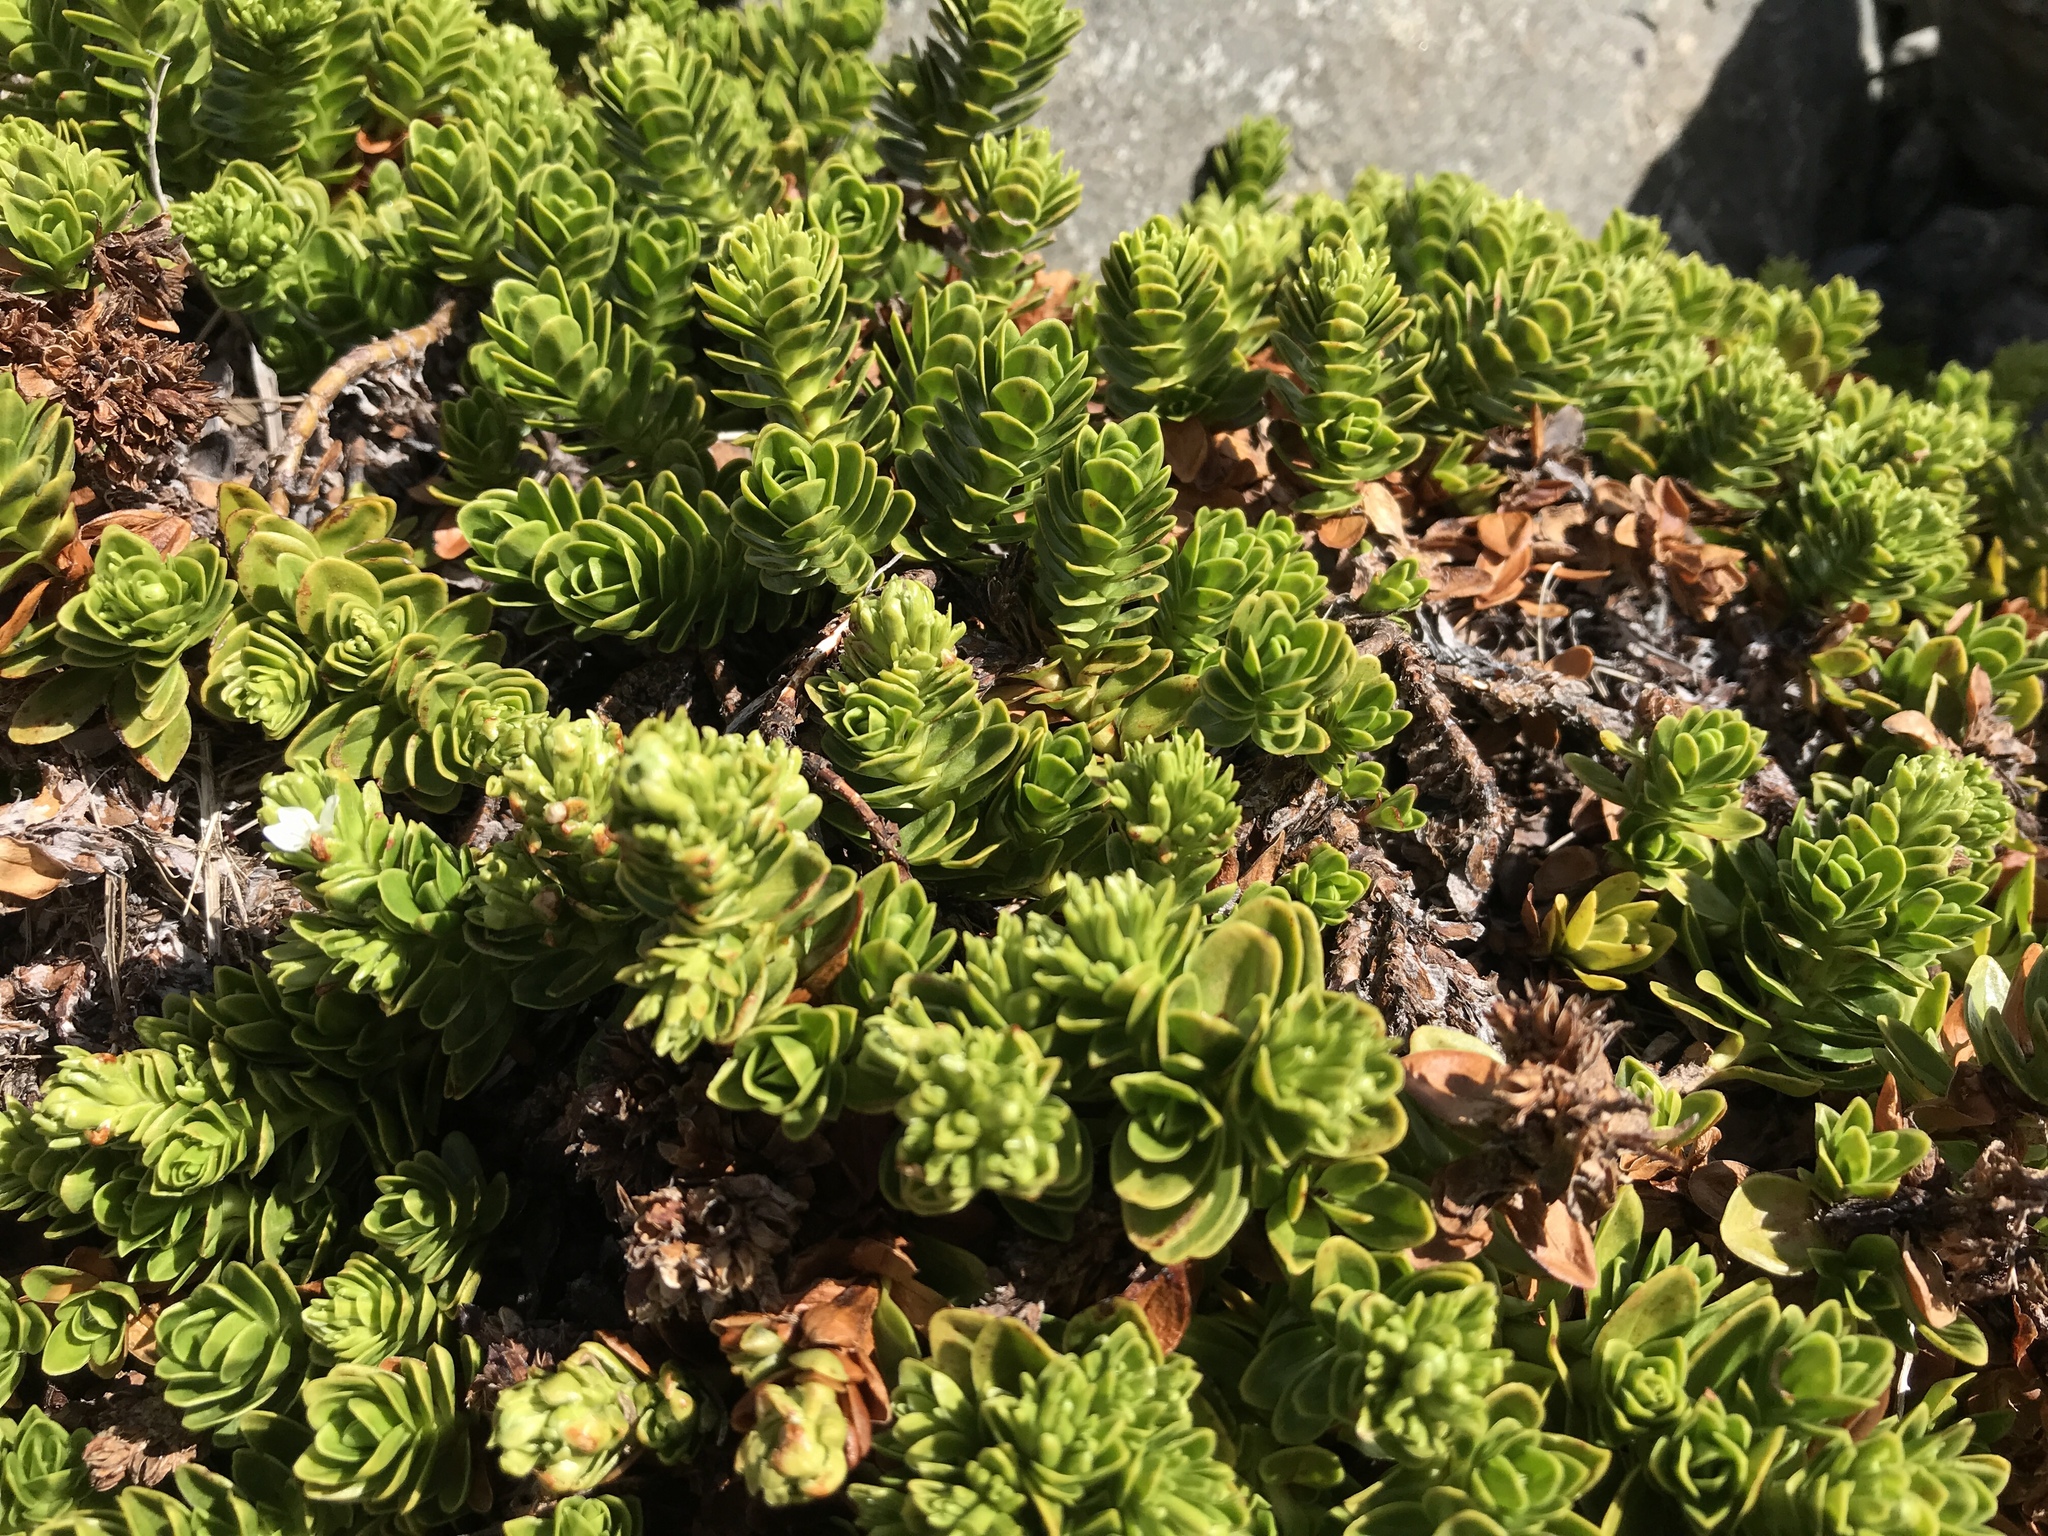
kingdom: Plantae
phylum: Tracheophyta
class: Magnoliopsida
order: Lamiales
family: Plantaginaceae
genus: Veronica
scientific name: Veronica macrocalyx
